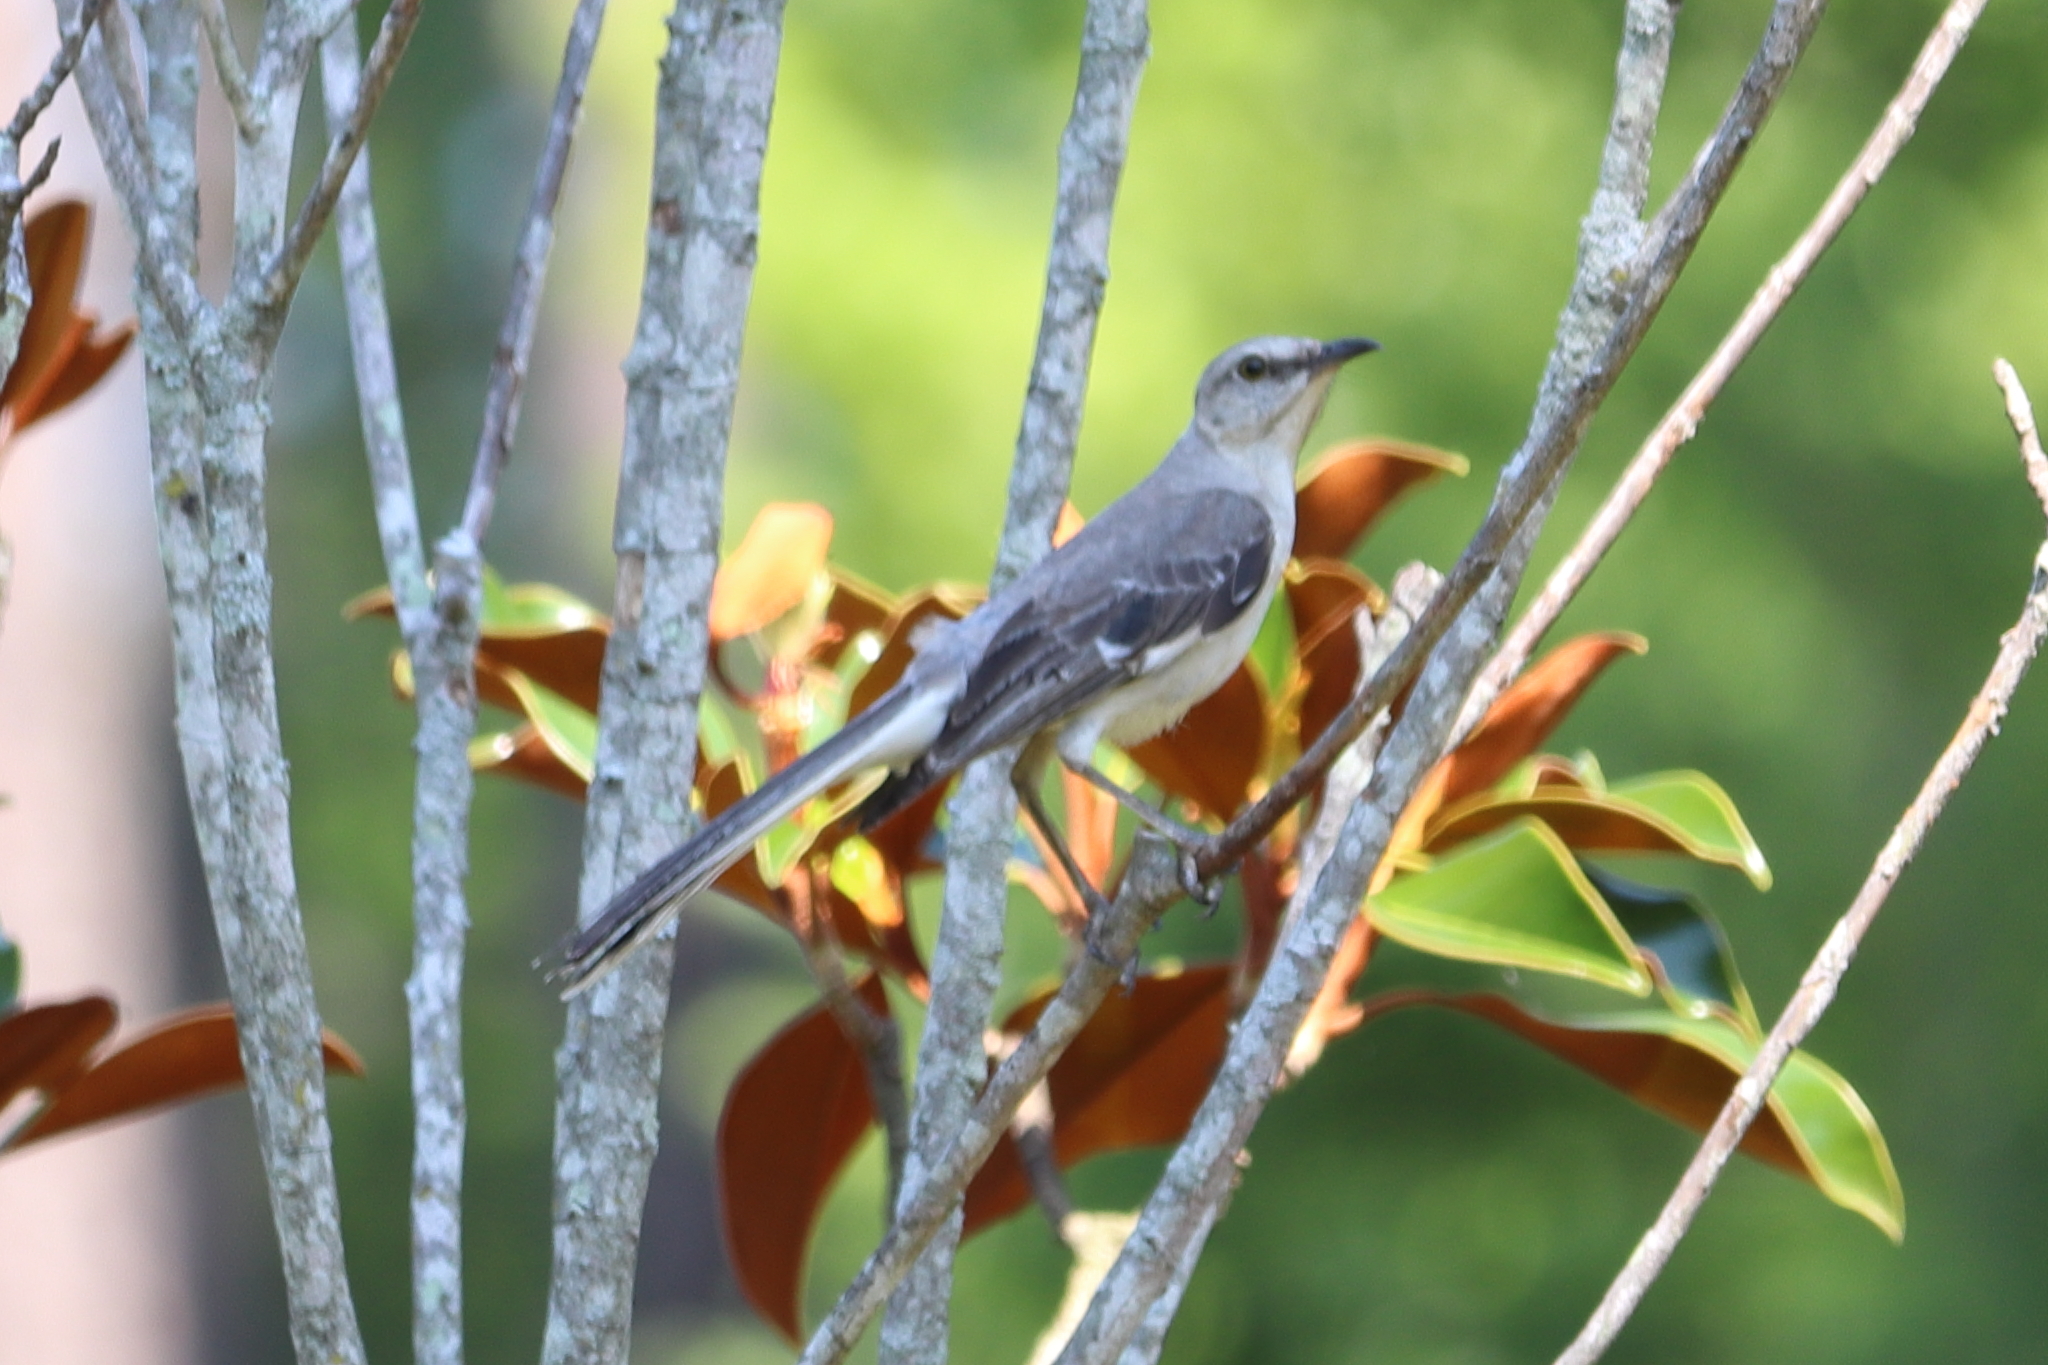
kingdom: Animalia
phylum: Chordata
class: Aves
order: Passeriformes
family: Mimidae
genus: Mimus
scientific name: Mimus polyglottos
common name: Northern mockingbird
